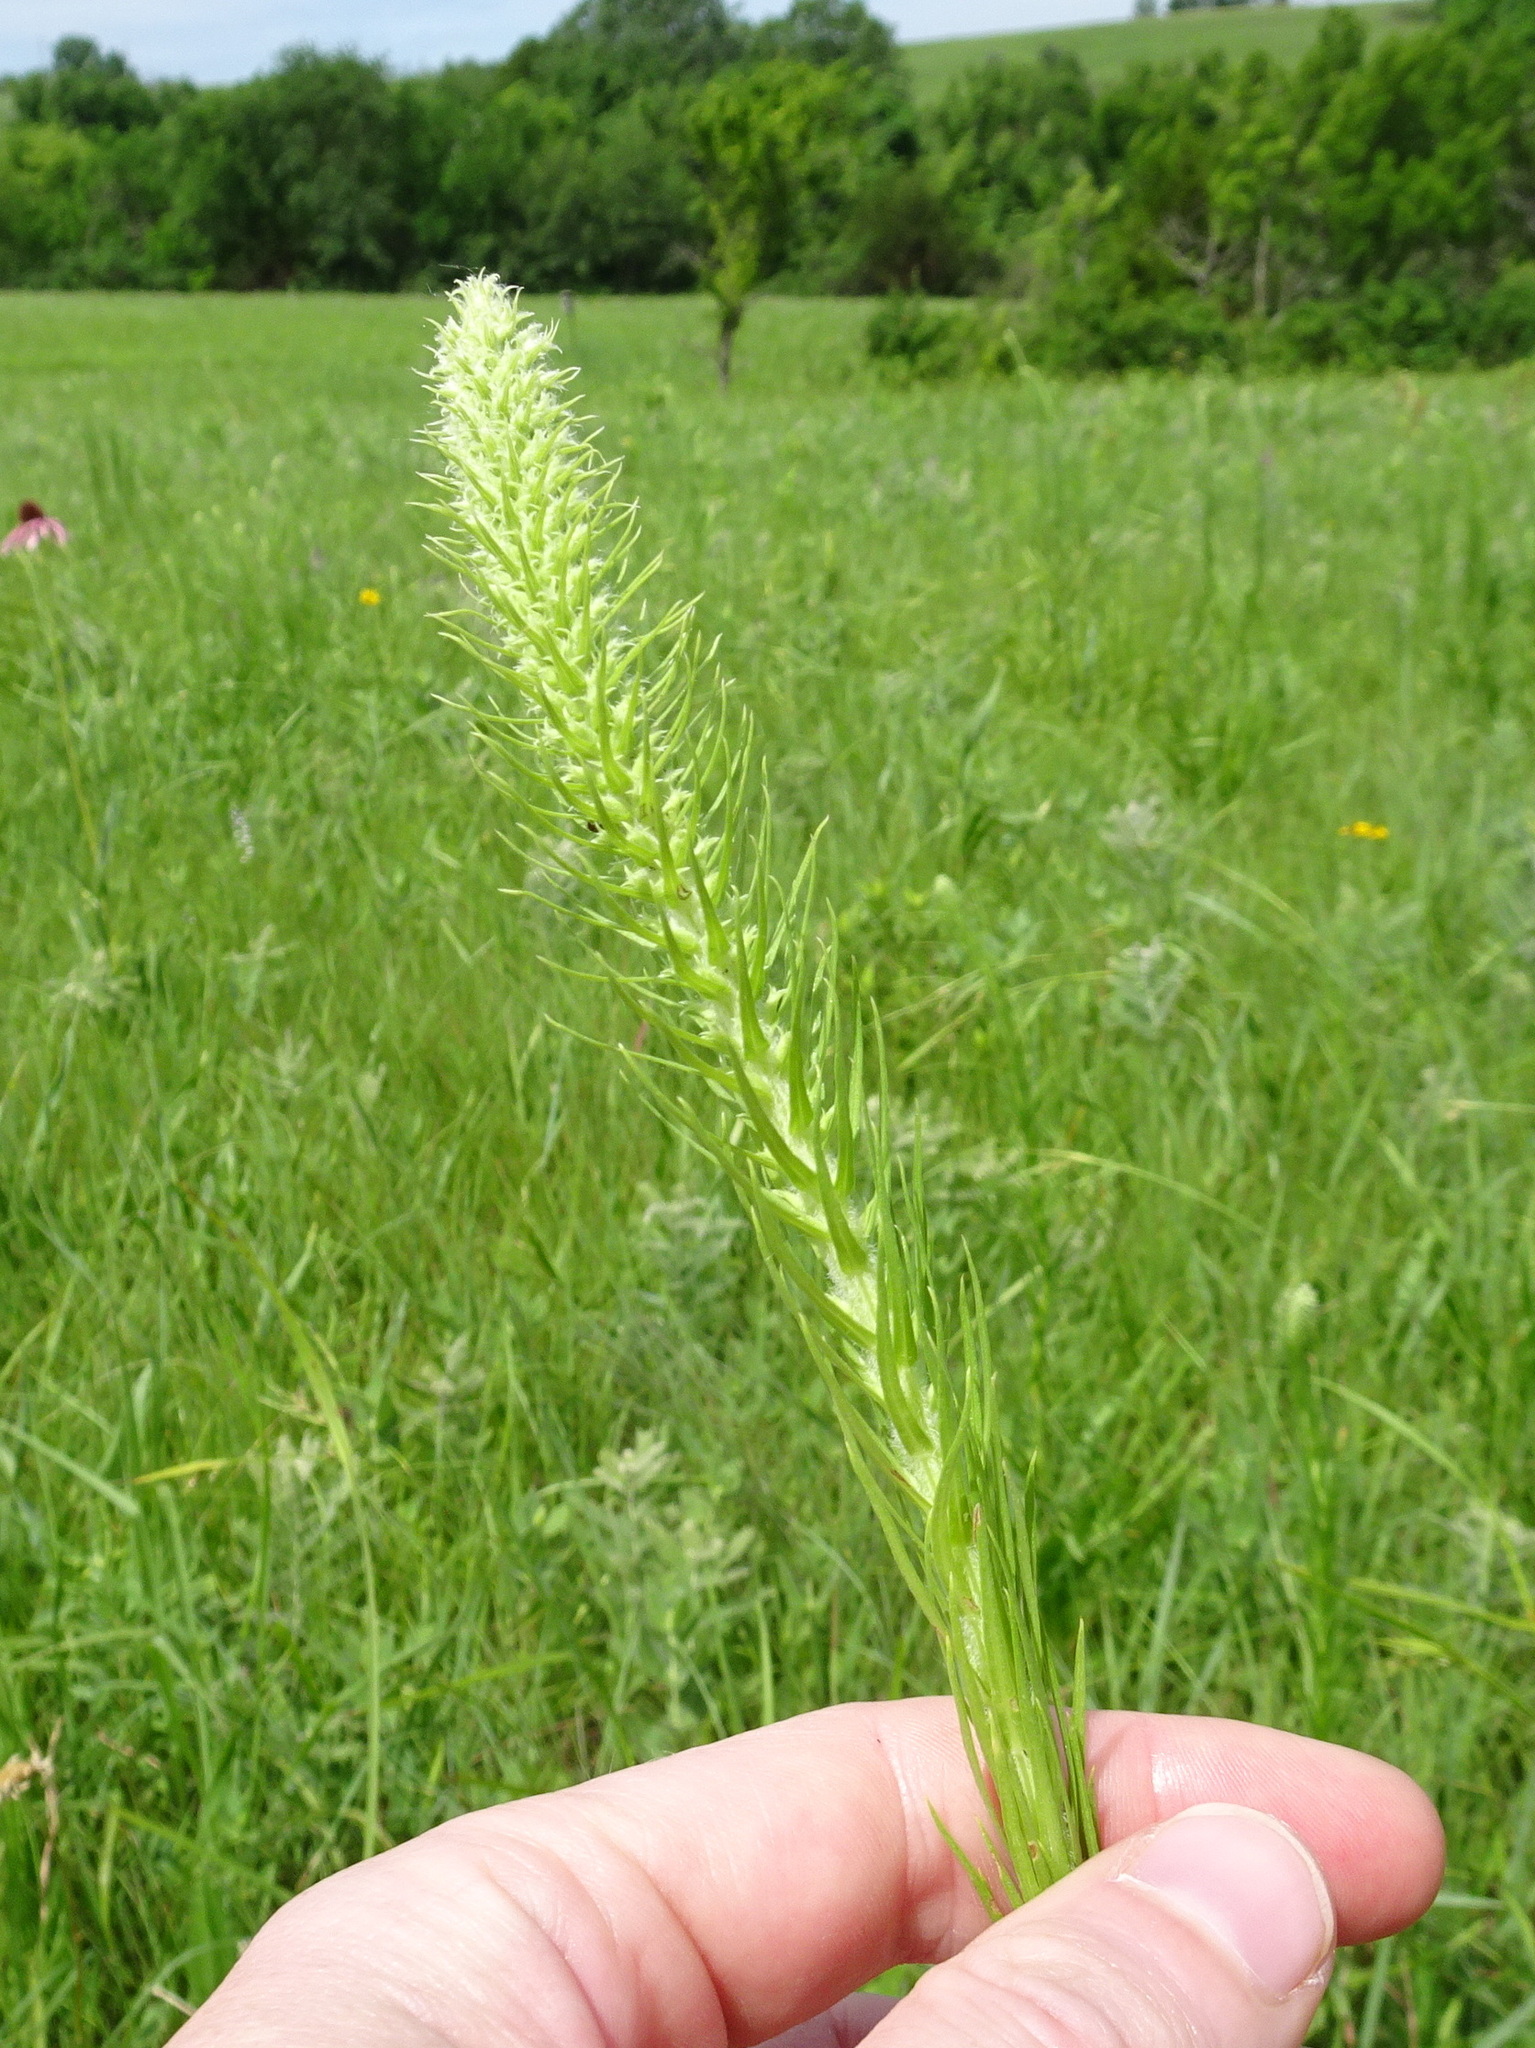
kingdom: Plantae
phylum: Tracheophyta
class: Magnoliopsida
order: Asterales
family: Asteraceae
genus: Liatris
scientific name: Liatris pycnostachya
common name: Cattail gayfeather
